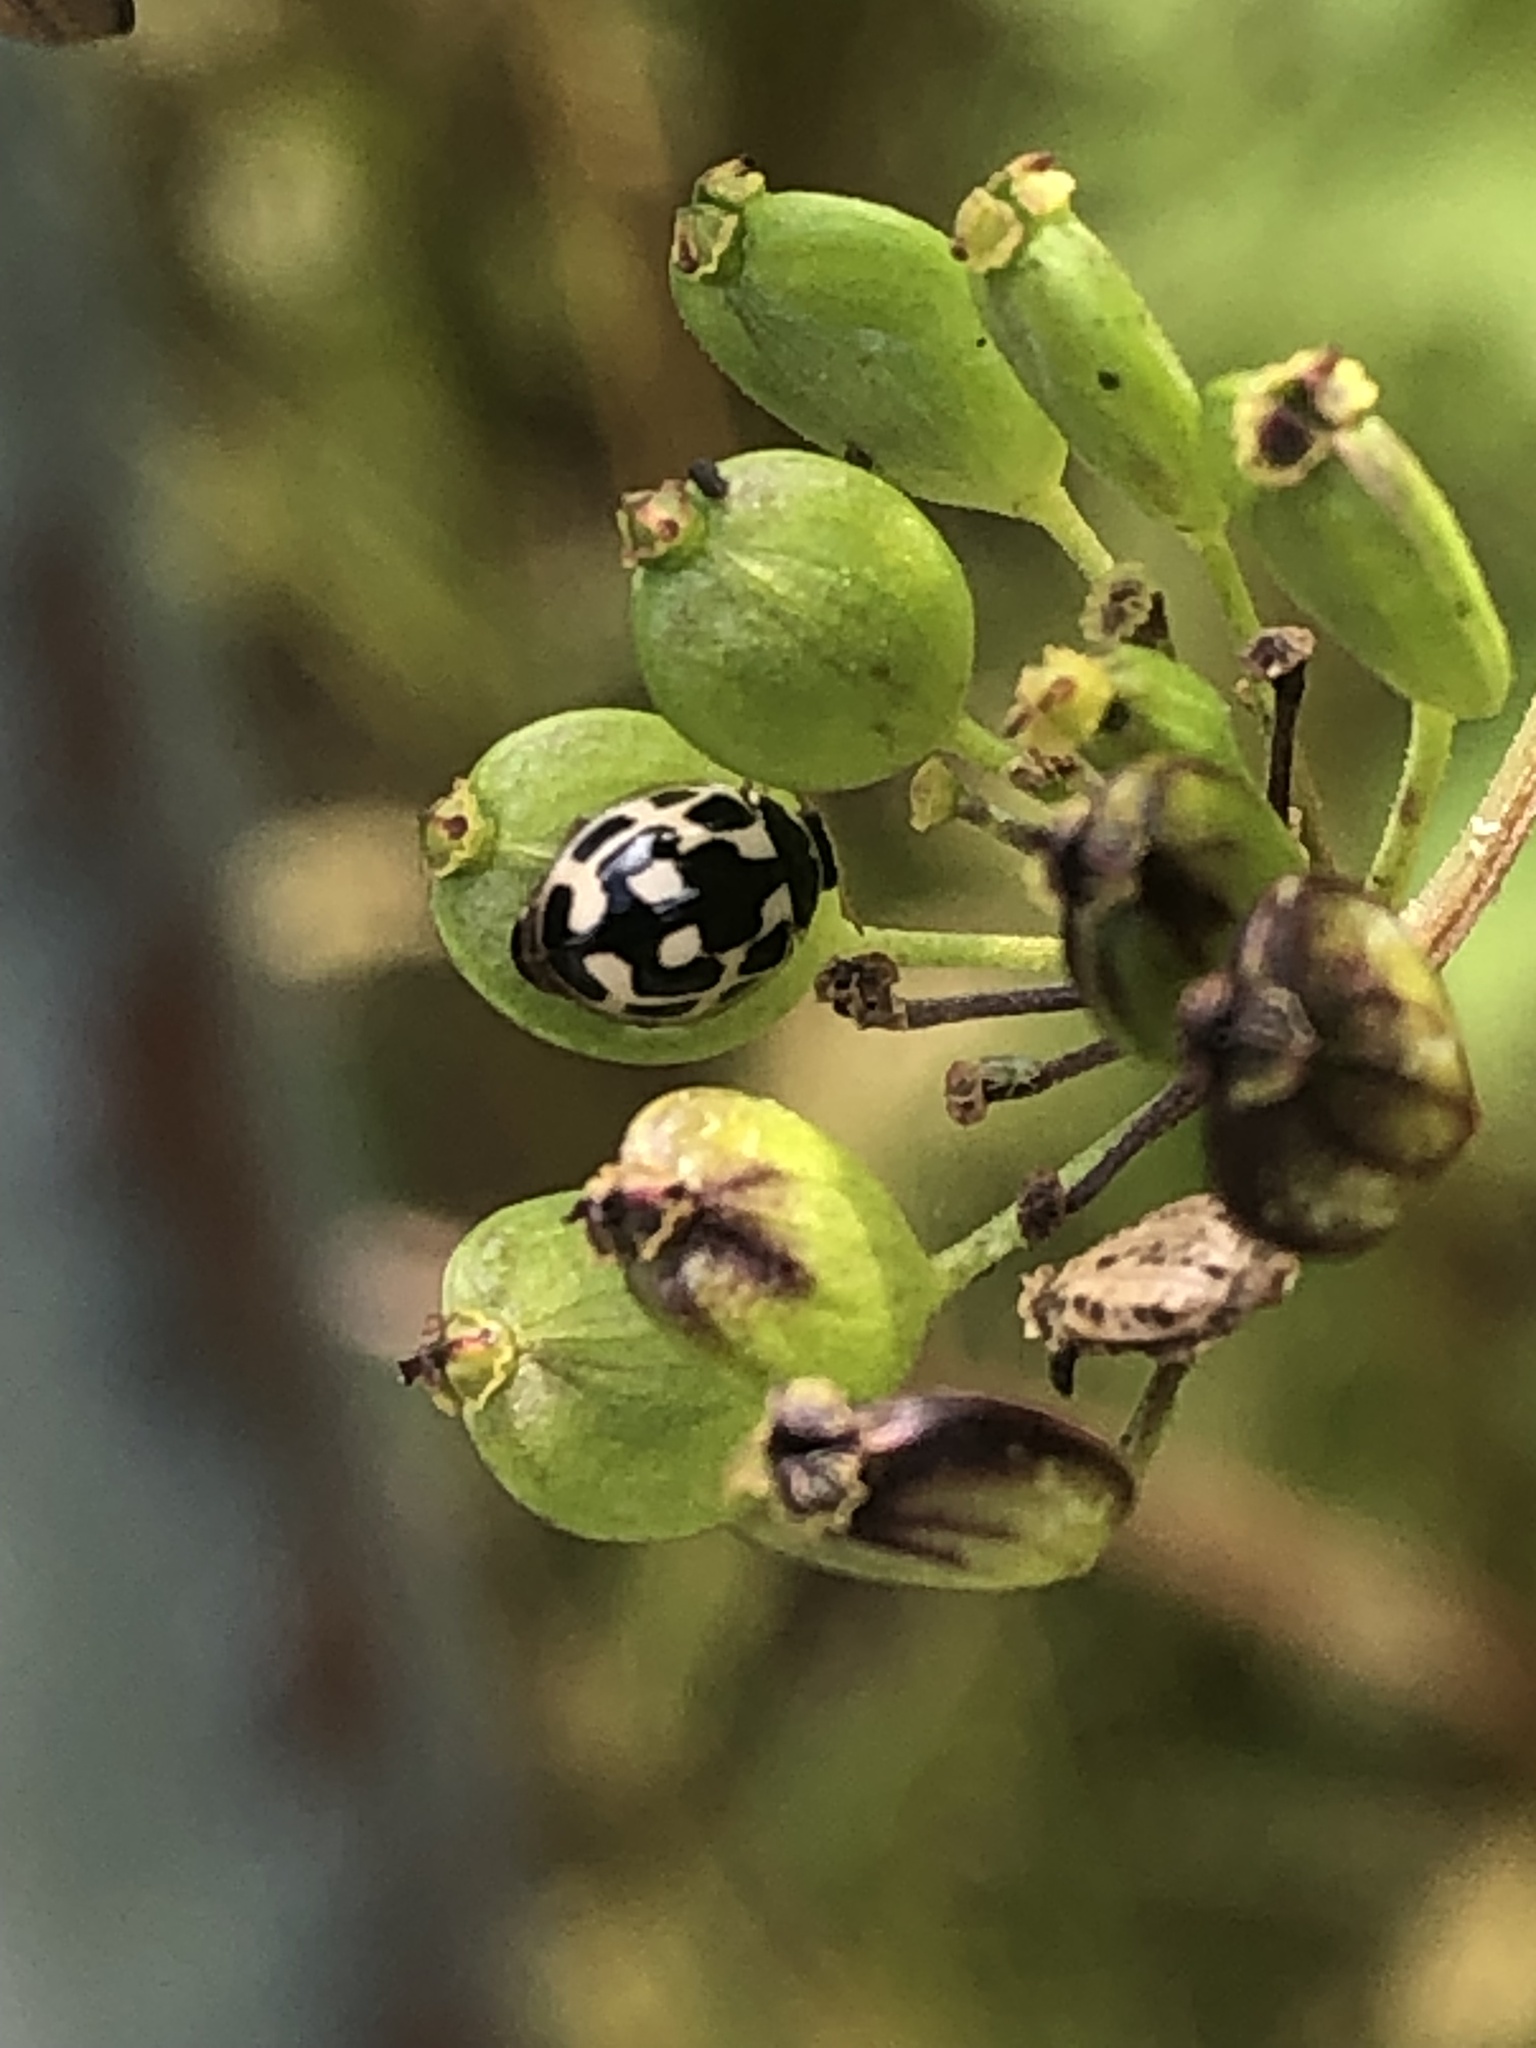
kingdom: Animalia
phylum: Arthropoda
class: Insecta
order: Coleoptera
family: Coccinellidae
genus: Propylaea
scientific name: Propylaea quatuordecimpunctata
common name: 14-spotted ladybird beetle
